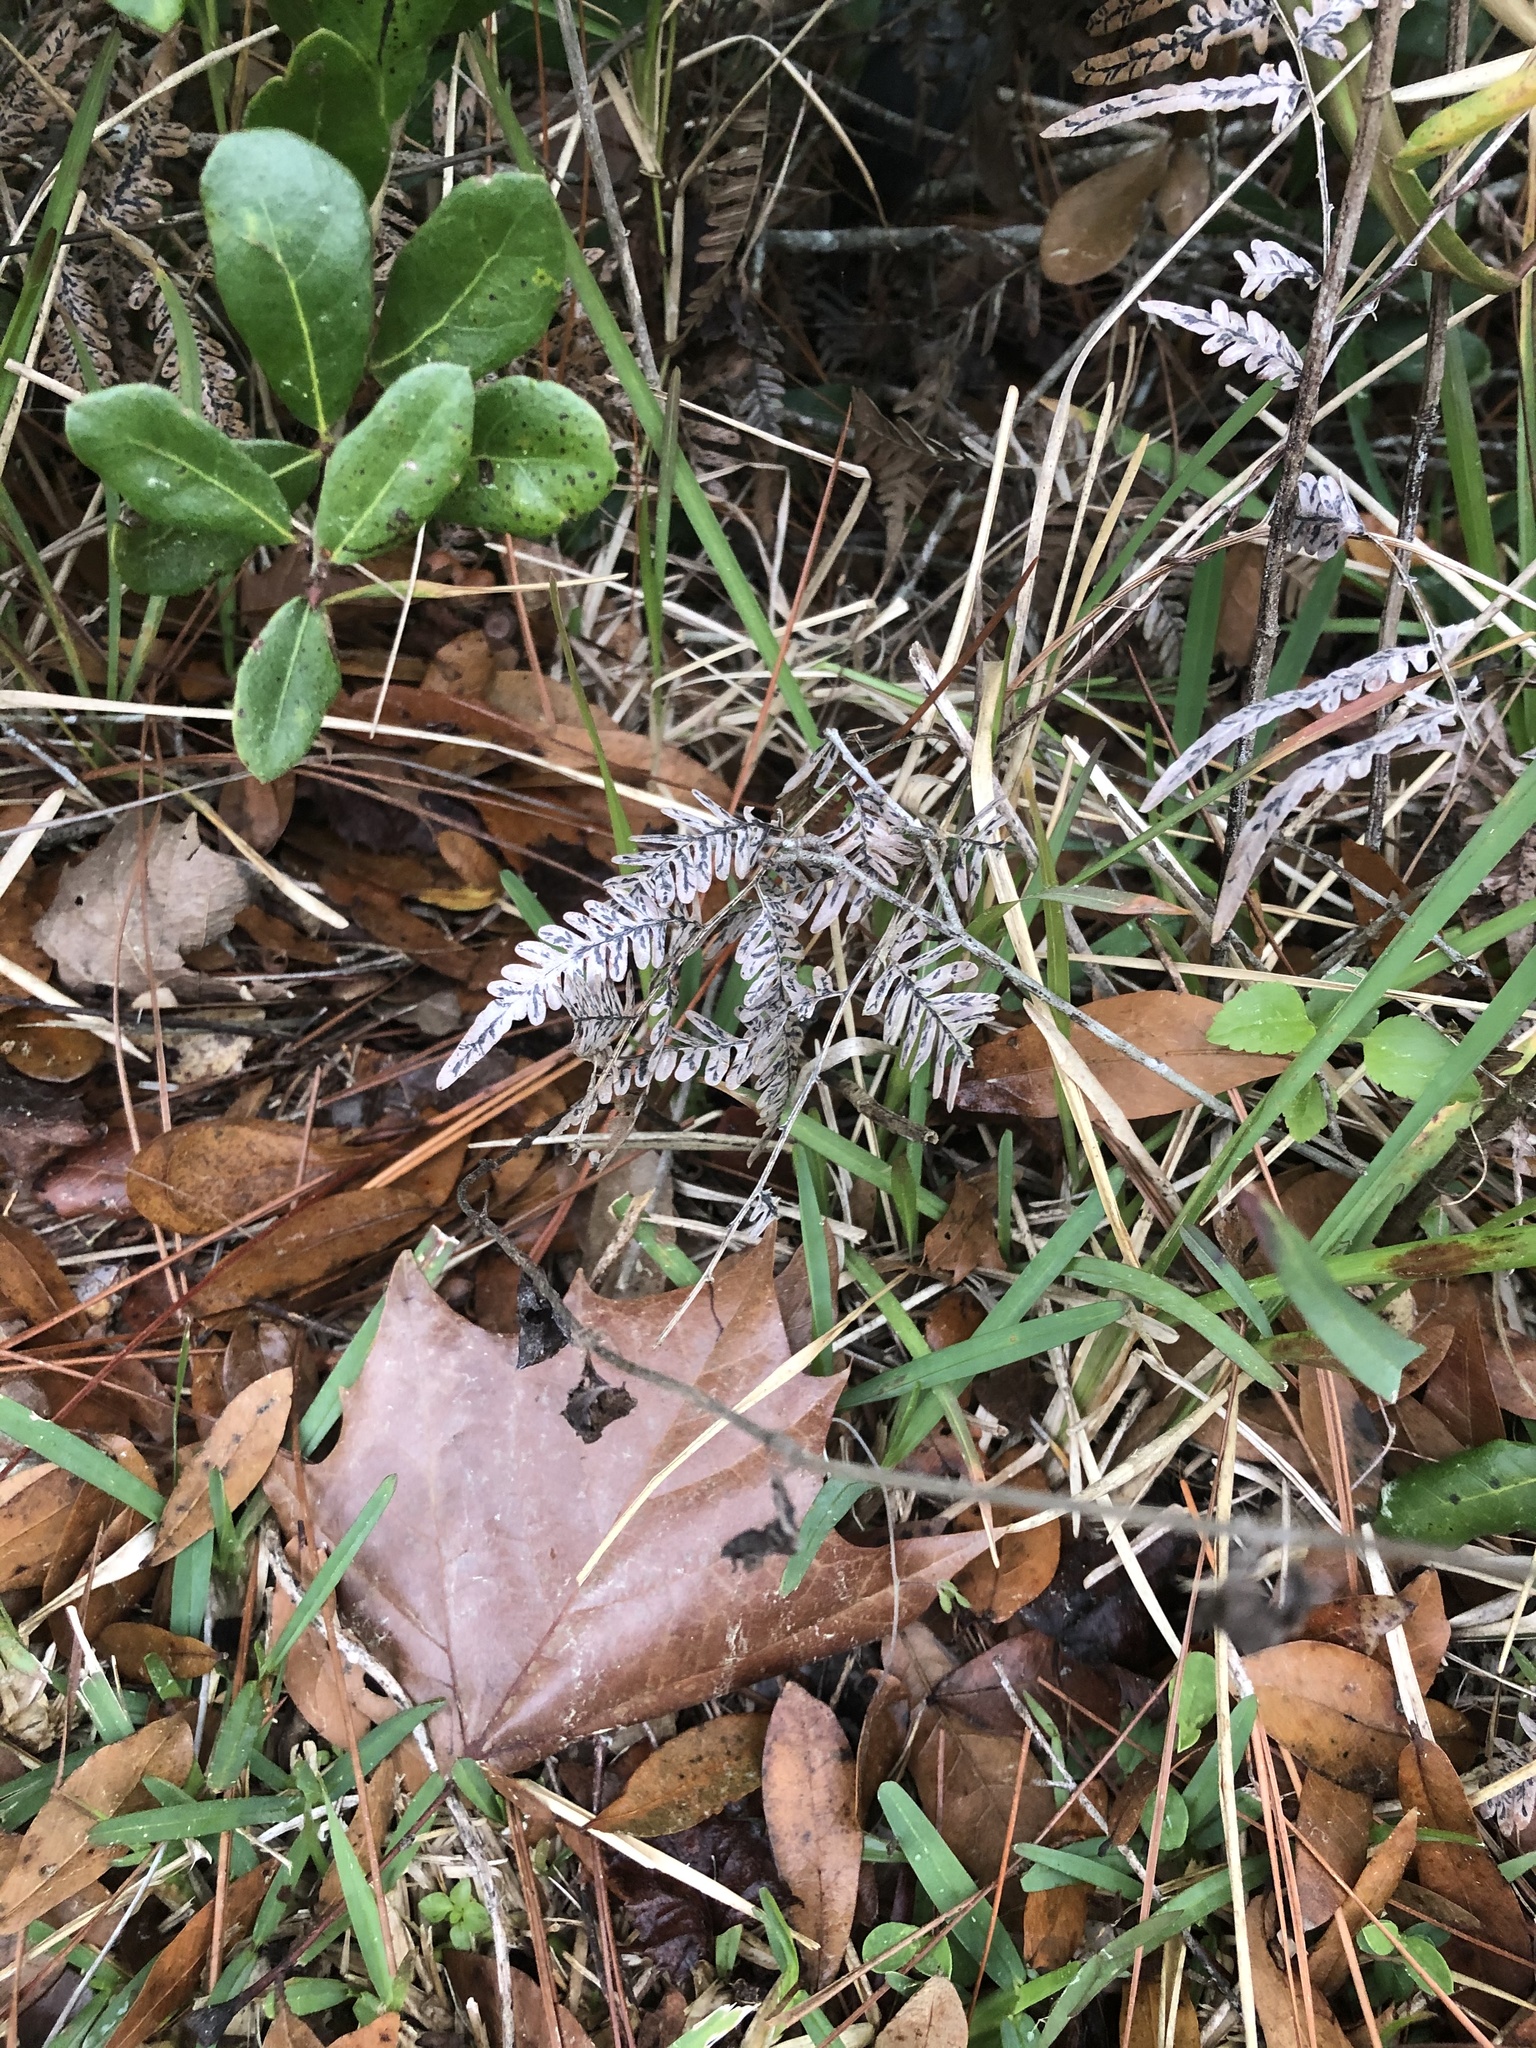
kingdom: Plantae
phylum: Tracheophyta
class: Polypodiopsida
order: Polypodiales
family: Dennstaedtiaceae
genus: Pteridium
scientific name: Pteridium
